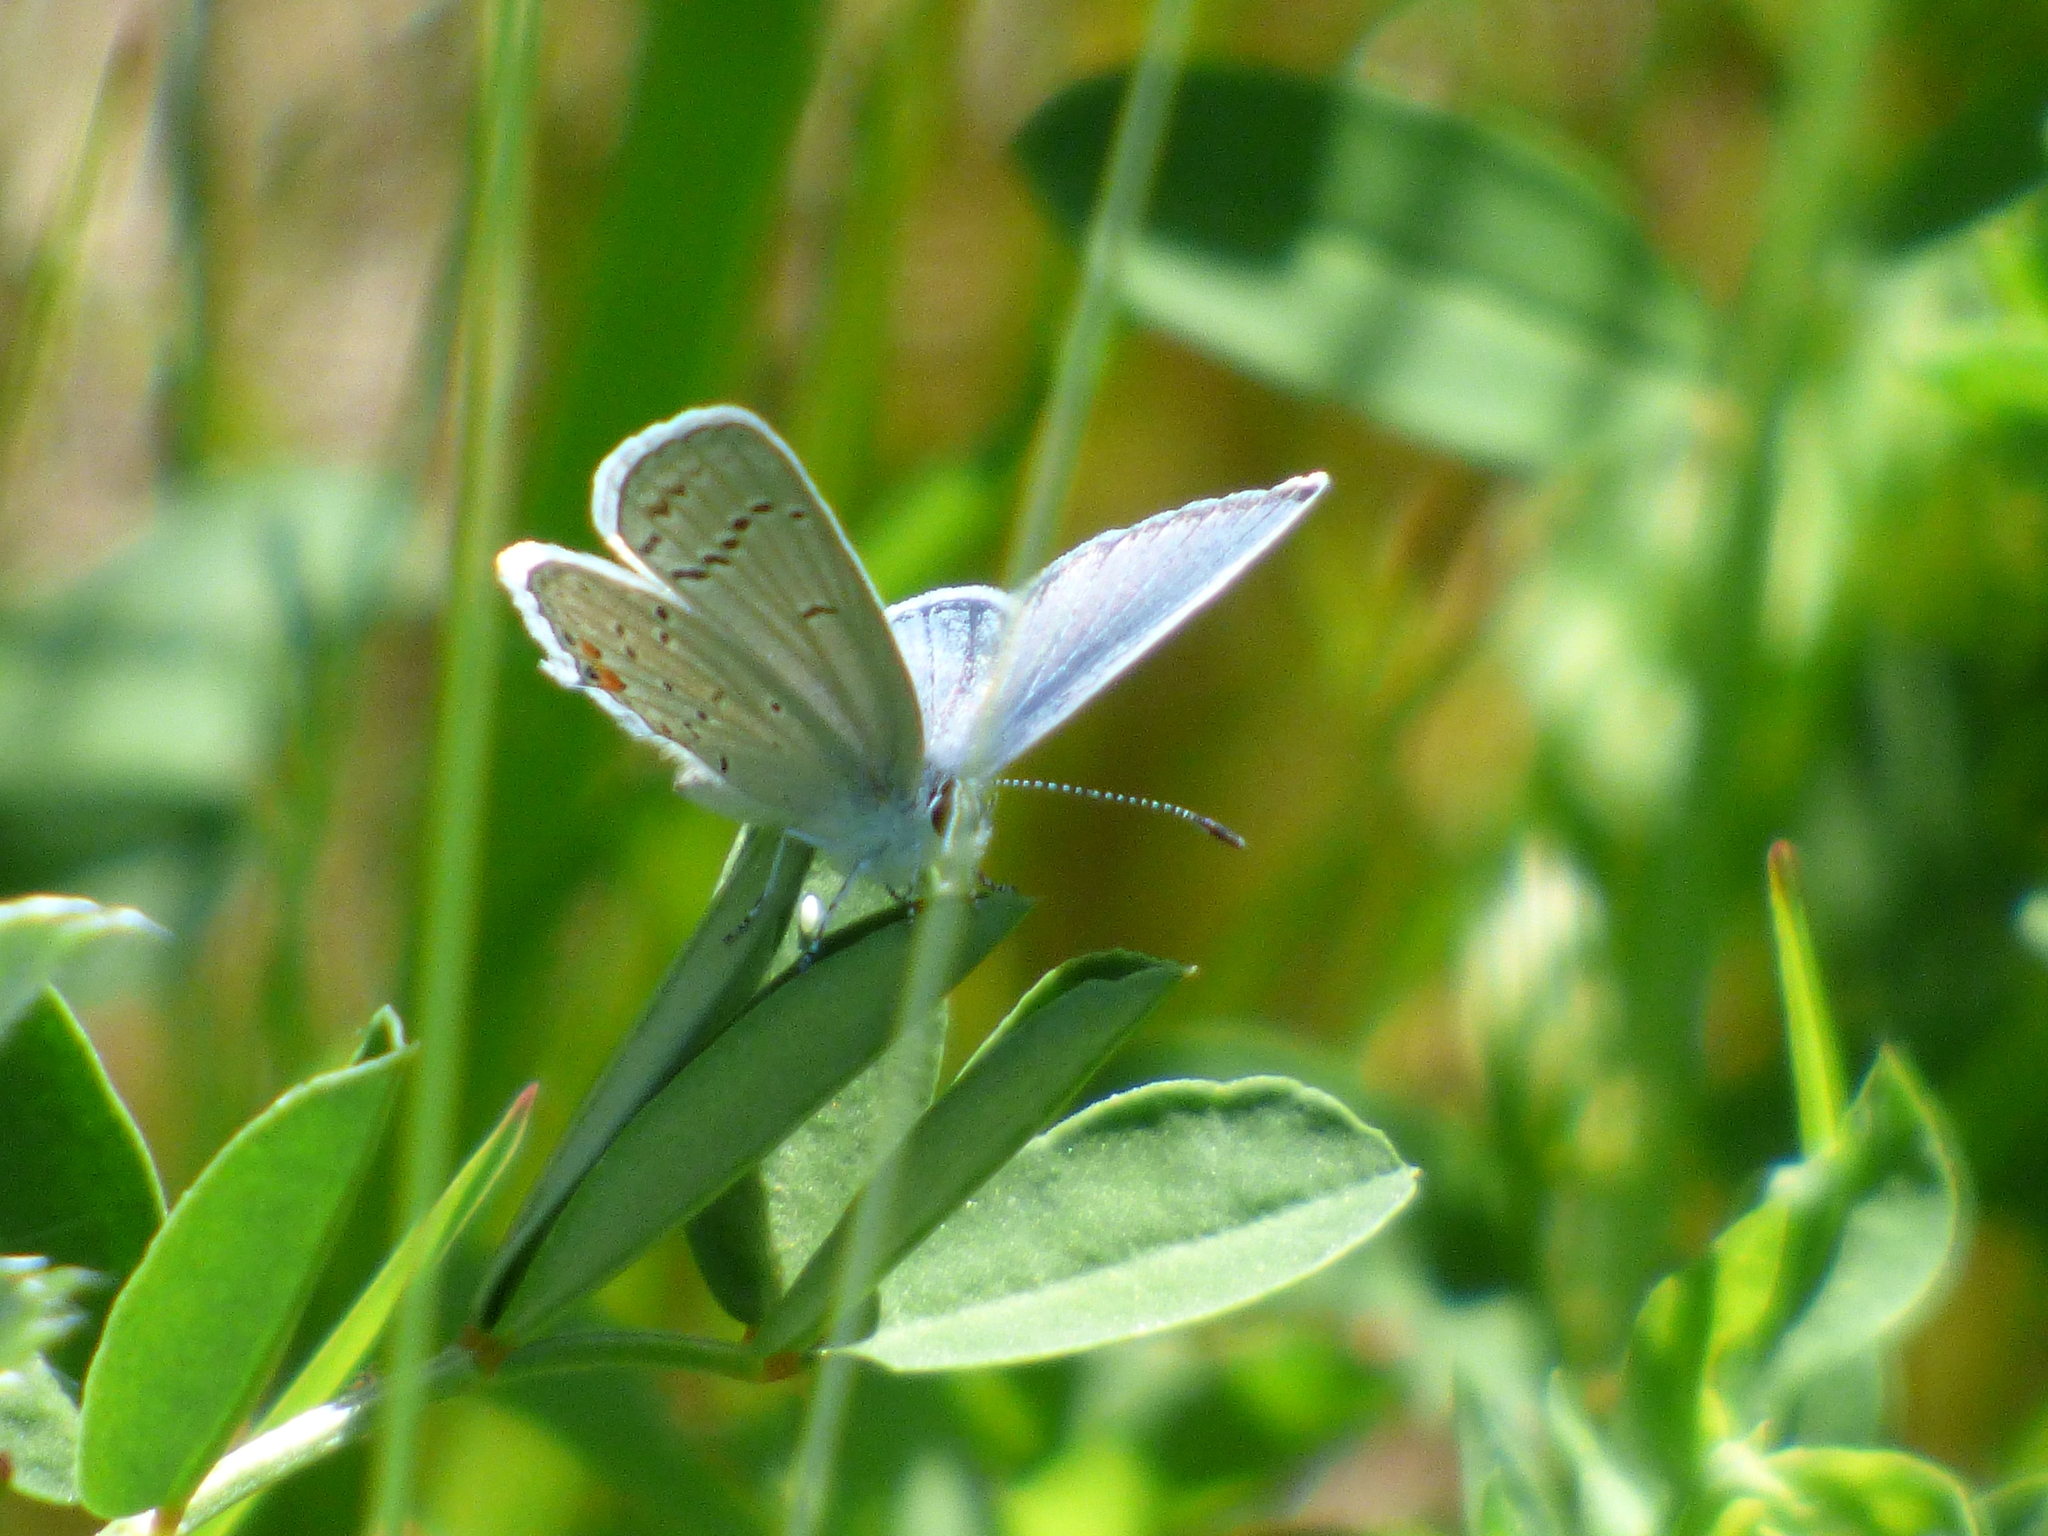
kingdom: Animalia
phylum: Arthropoda
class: Insecta
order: Lepidoptera
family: Lycaenidae
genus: Elkalyce
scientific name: Elkalyce comyntas
